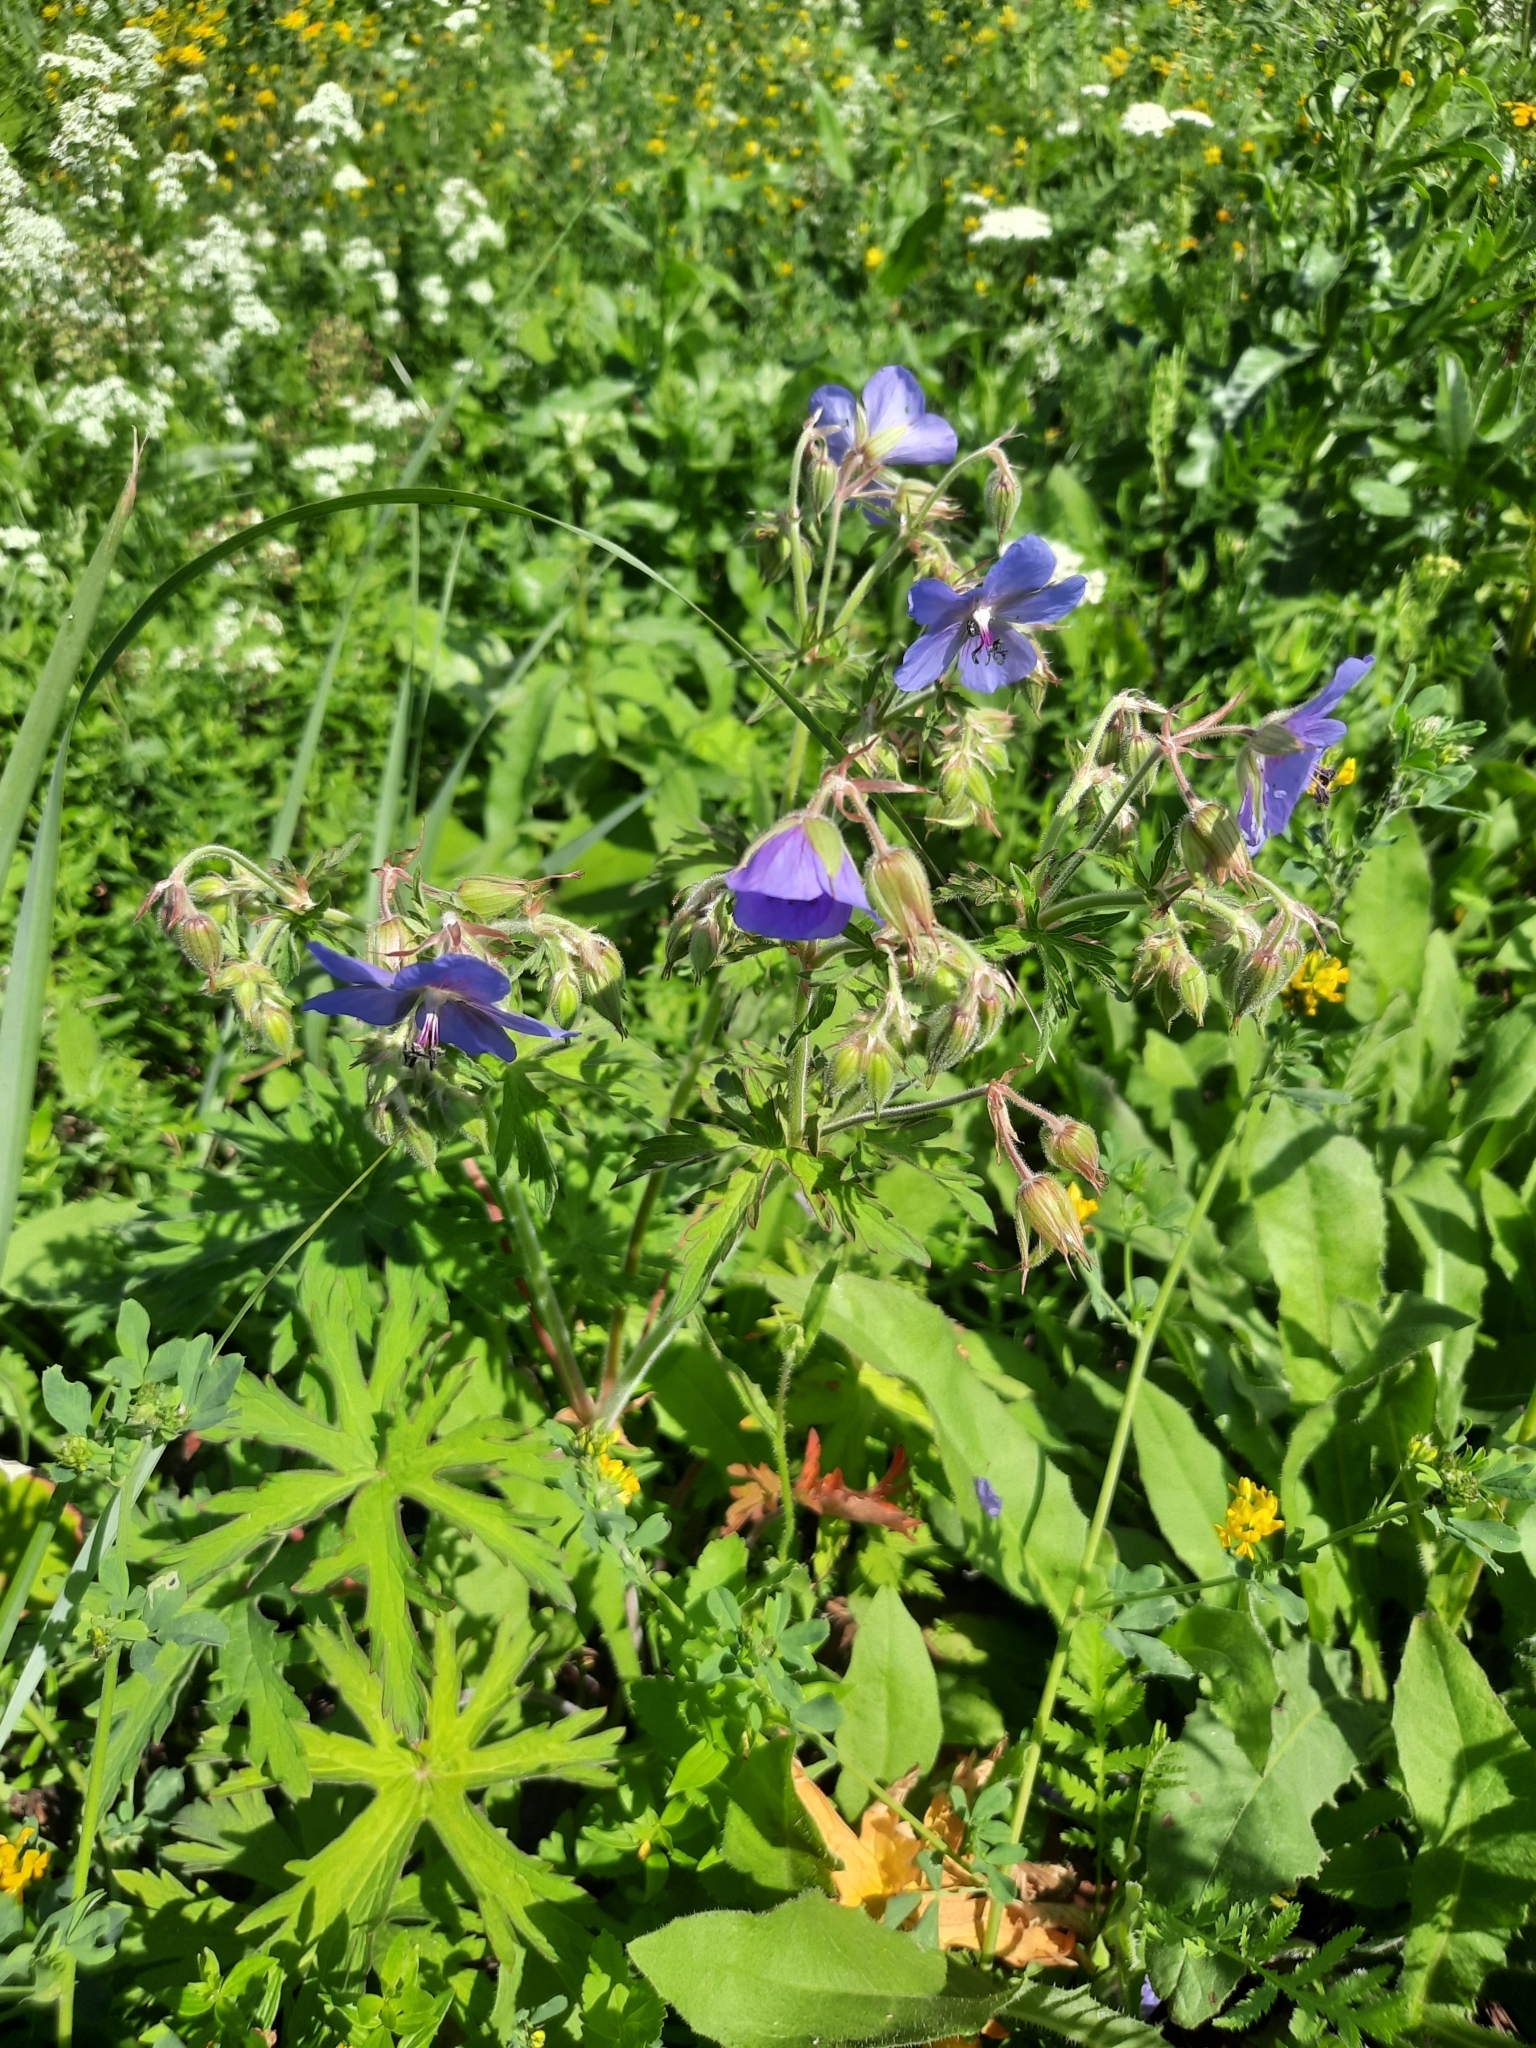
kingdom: Plantae
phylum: Tracheophyta
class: Magnoliopsida
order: Geraniales
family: Geraniaceae
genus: Geranium
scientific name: Geranium pratense
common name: Meadow crane's-bill
